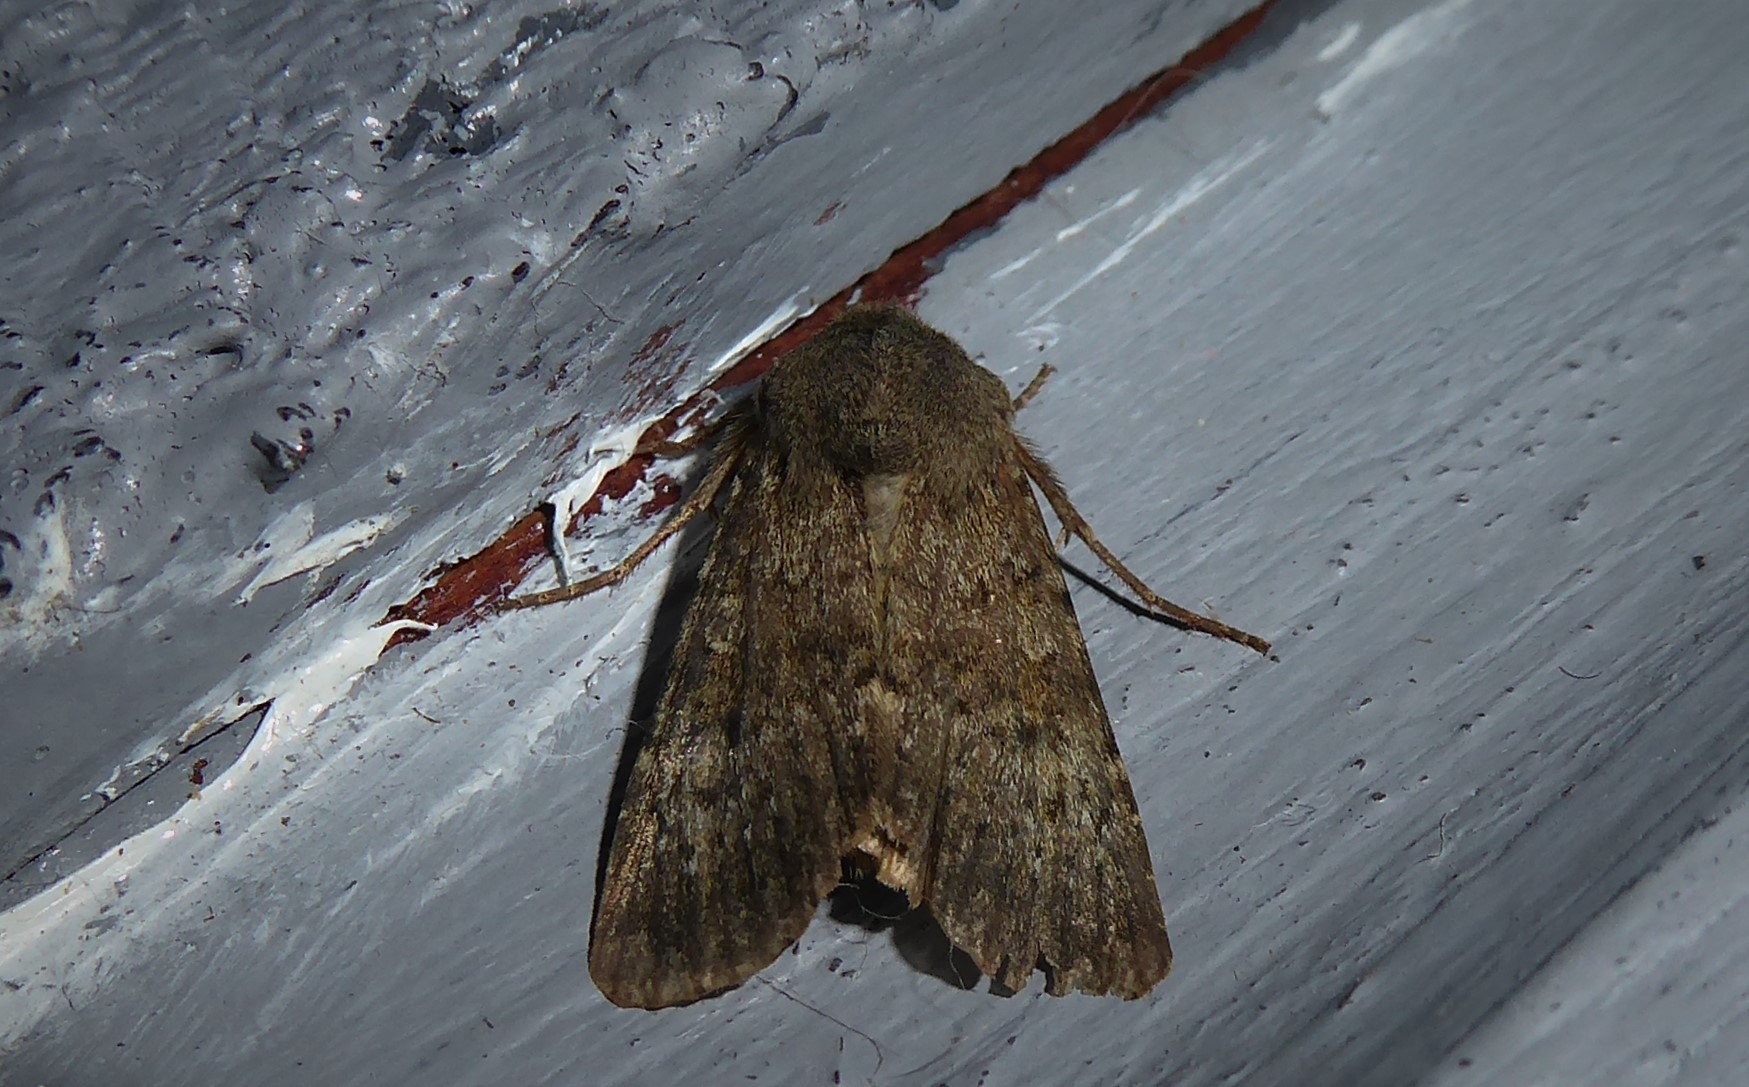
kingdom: Animalia
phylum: Arthropoda
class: Insecta
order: Lepidoptera
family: Noctuidae
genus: Ichneutica
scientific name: Ichneutica moderata
